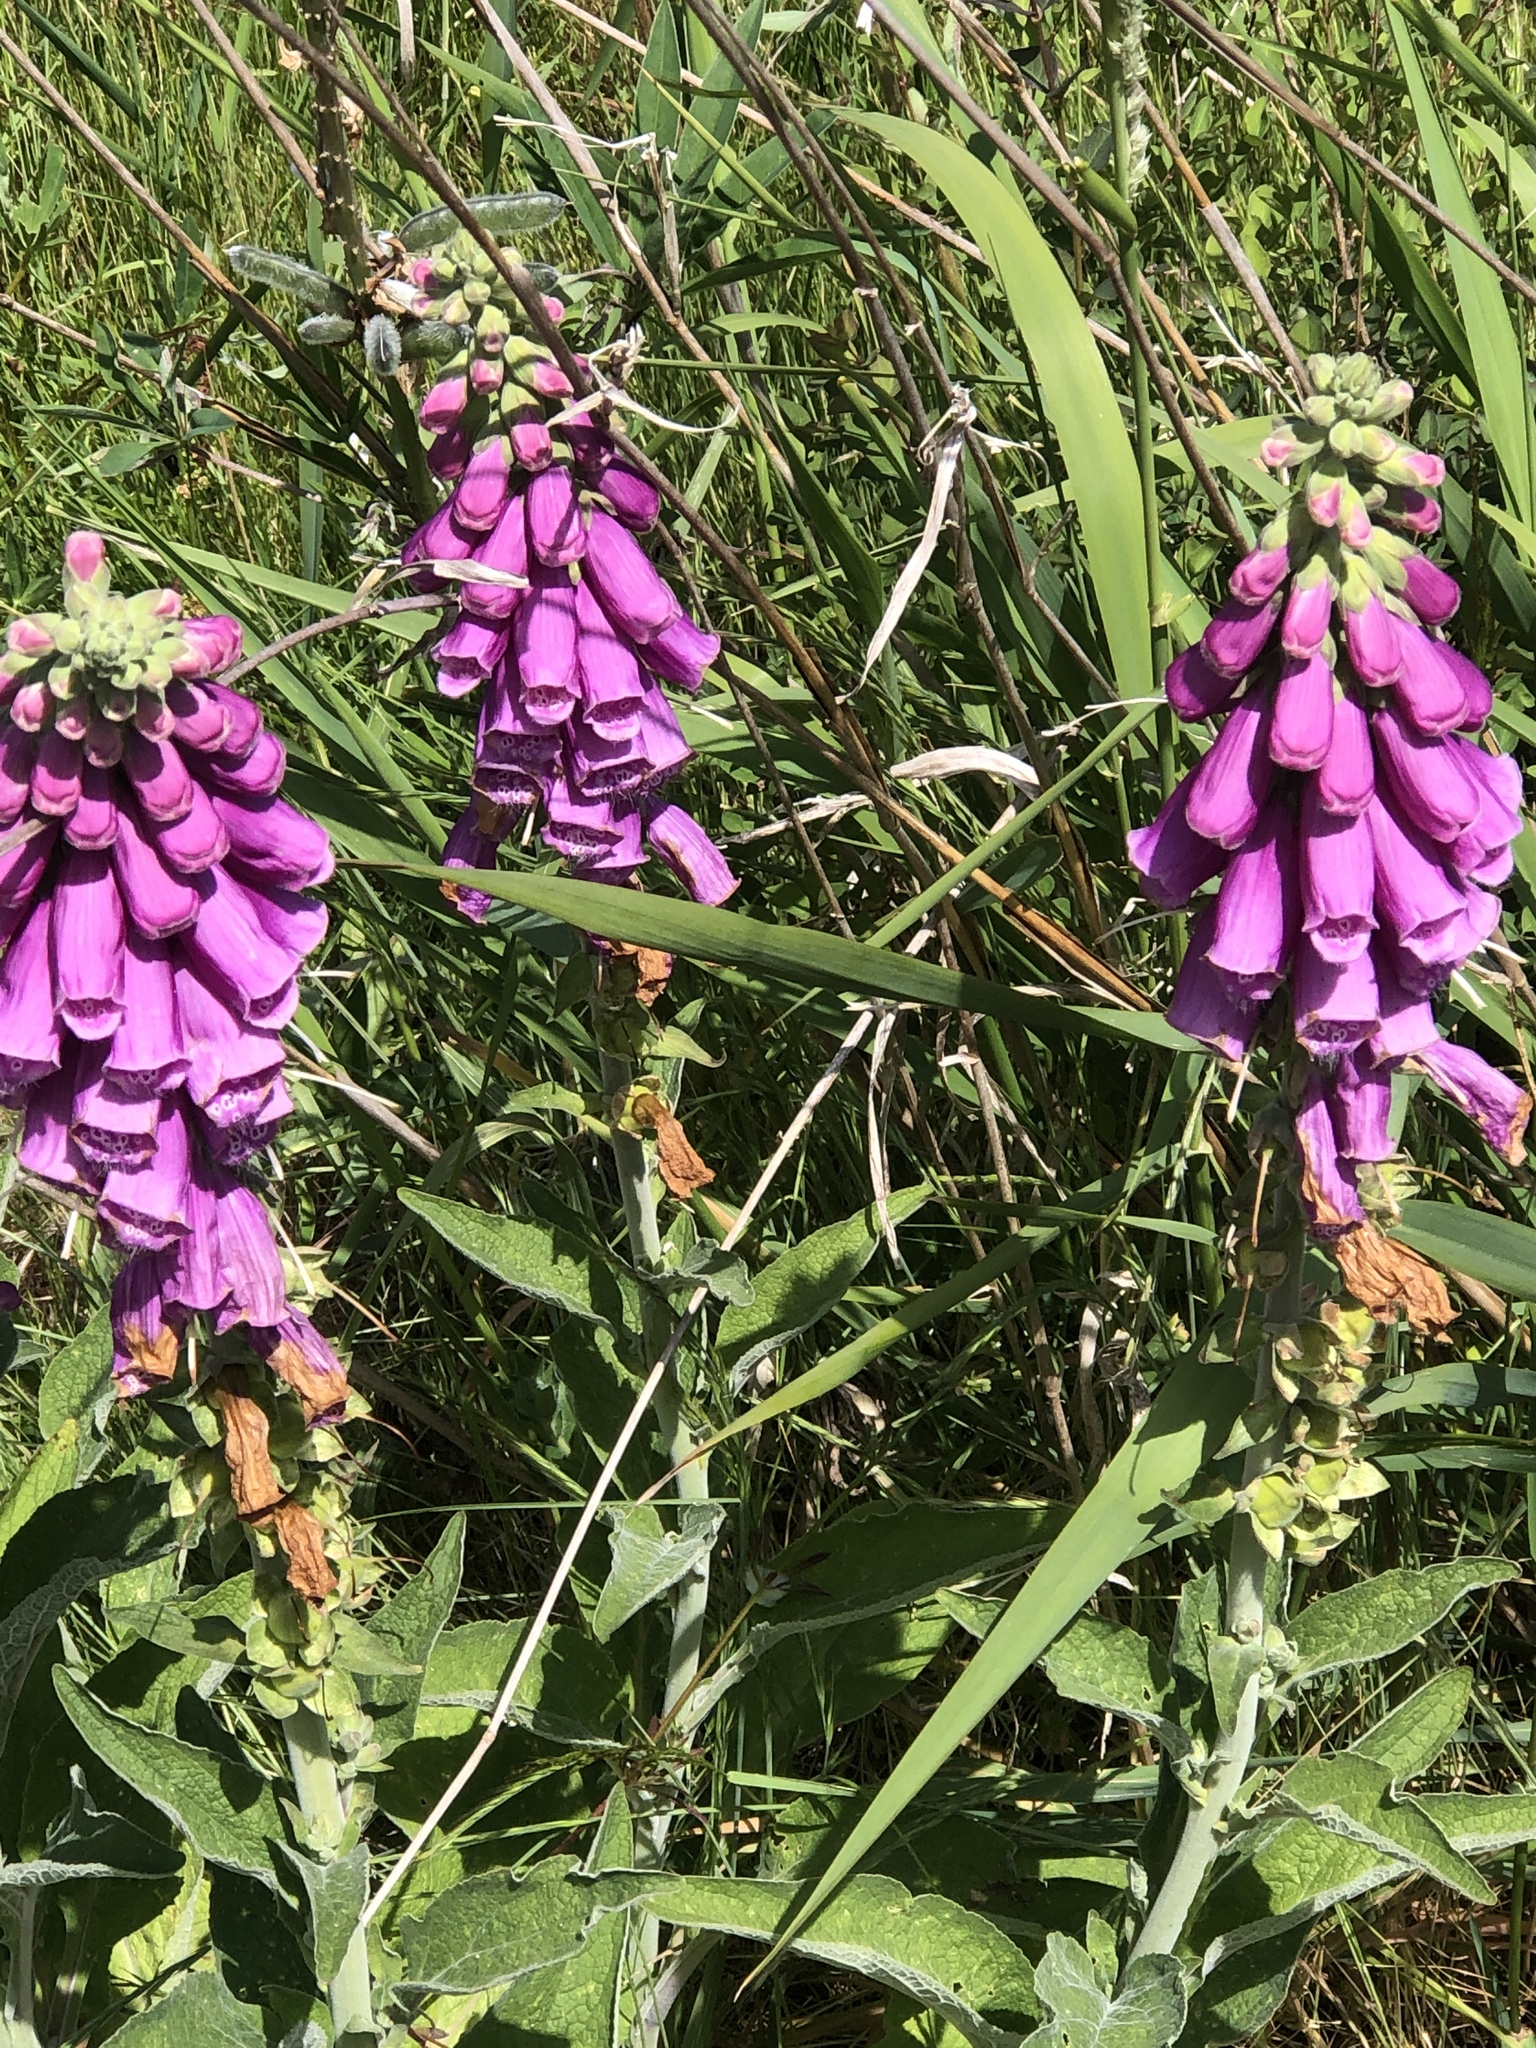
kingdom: Plantae
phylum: Tracheophyta
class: Magnoliopsida
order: Lamiales
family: Plantaginaceae
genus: Digitalis
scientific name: Digitalis purpurea
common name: Foxglove
